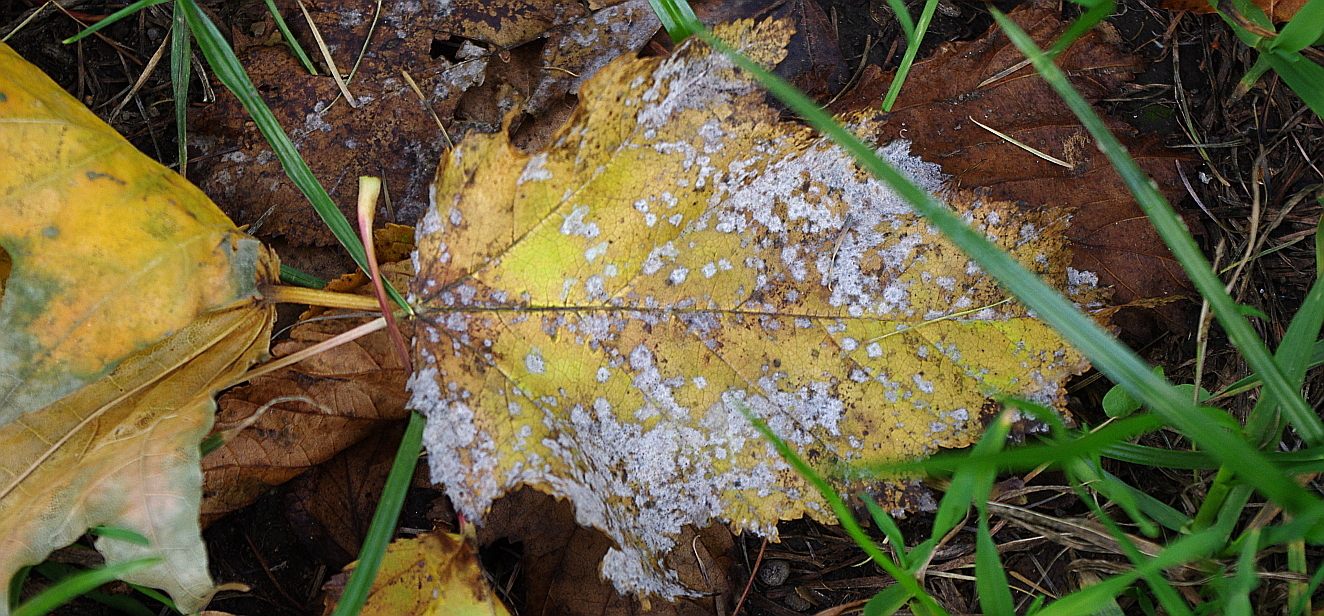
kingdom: Fungi
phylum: Ascomycota
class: Leotiomycetes
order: Helotiales
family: Erysiphaceae
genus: Podosphaera
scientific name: Podosphaera clandestina
